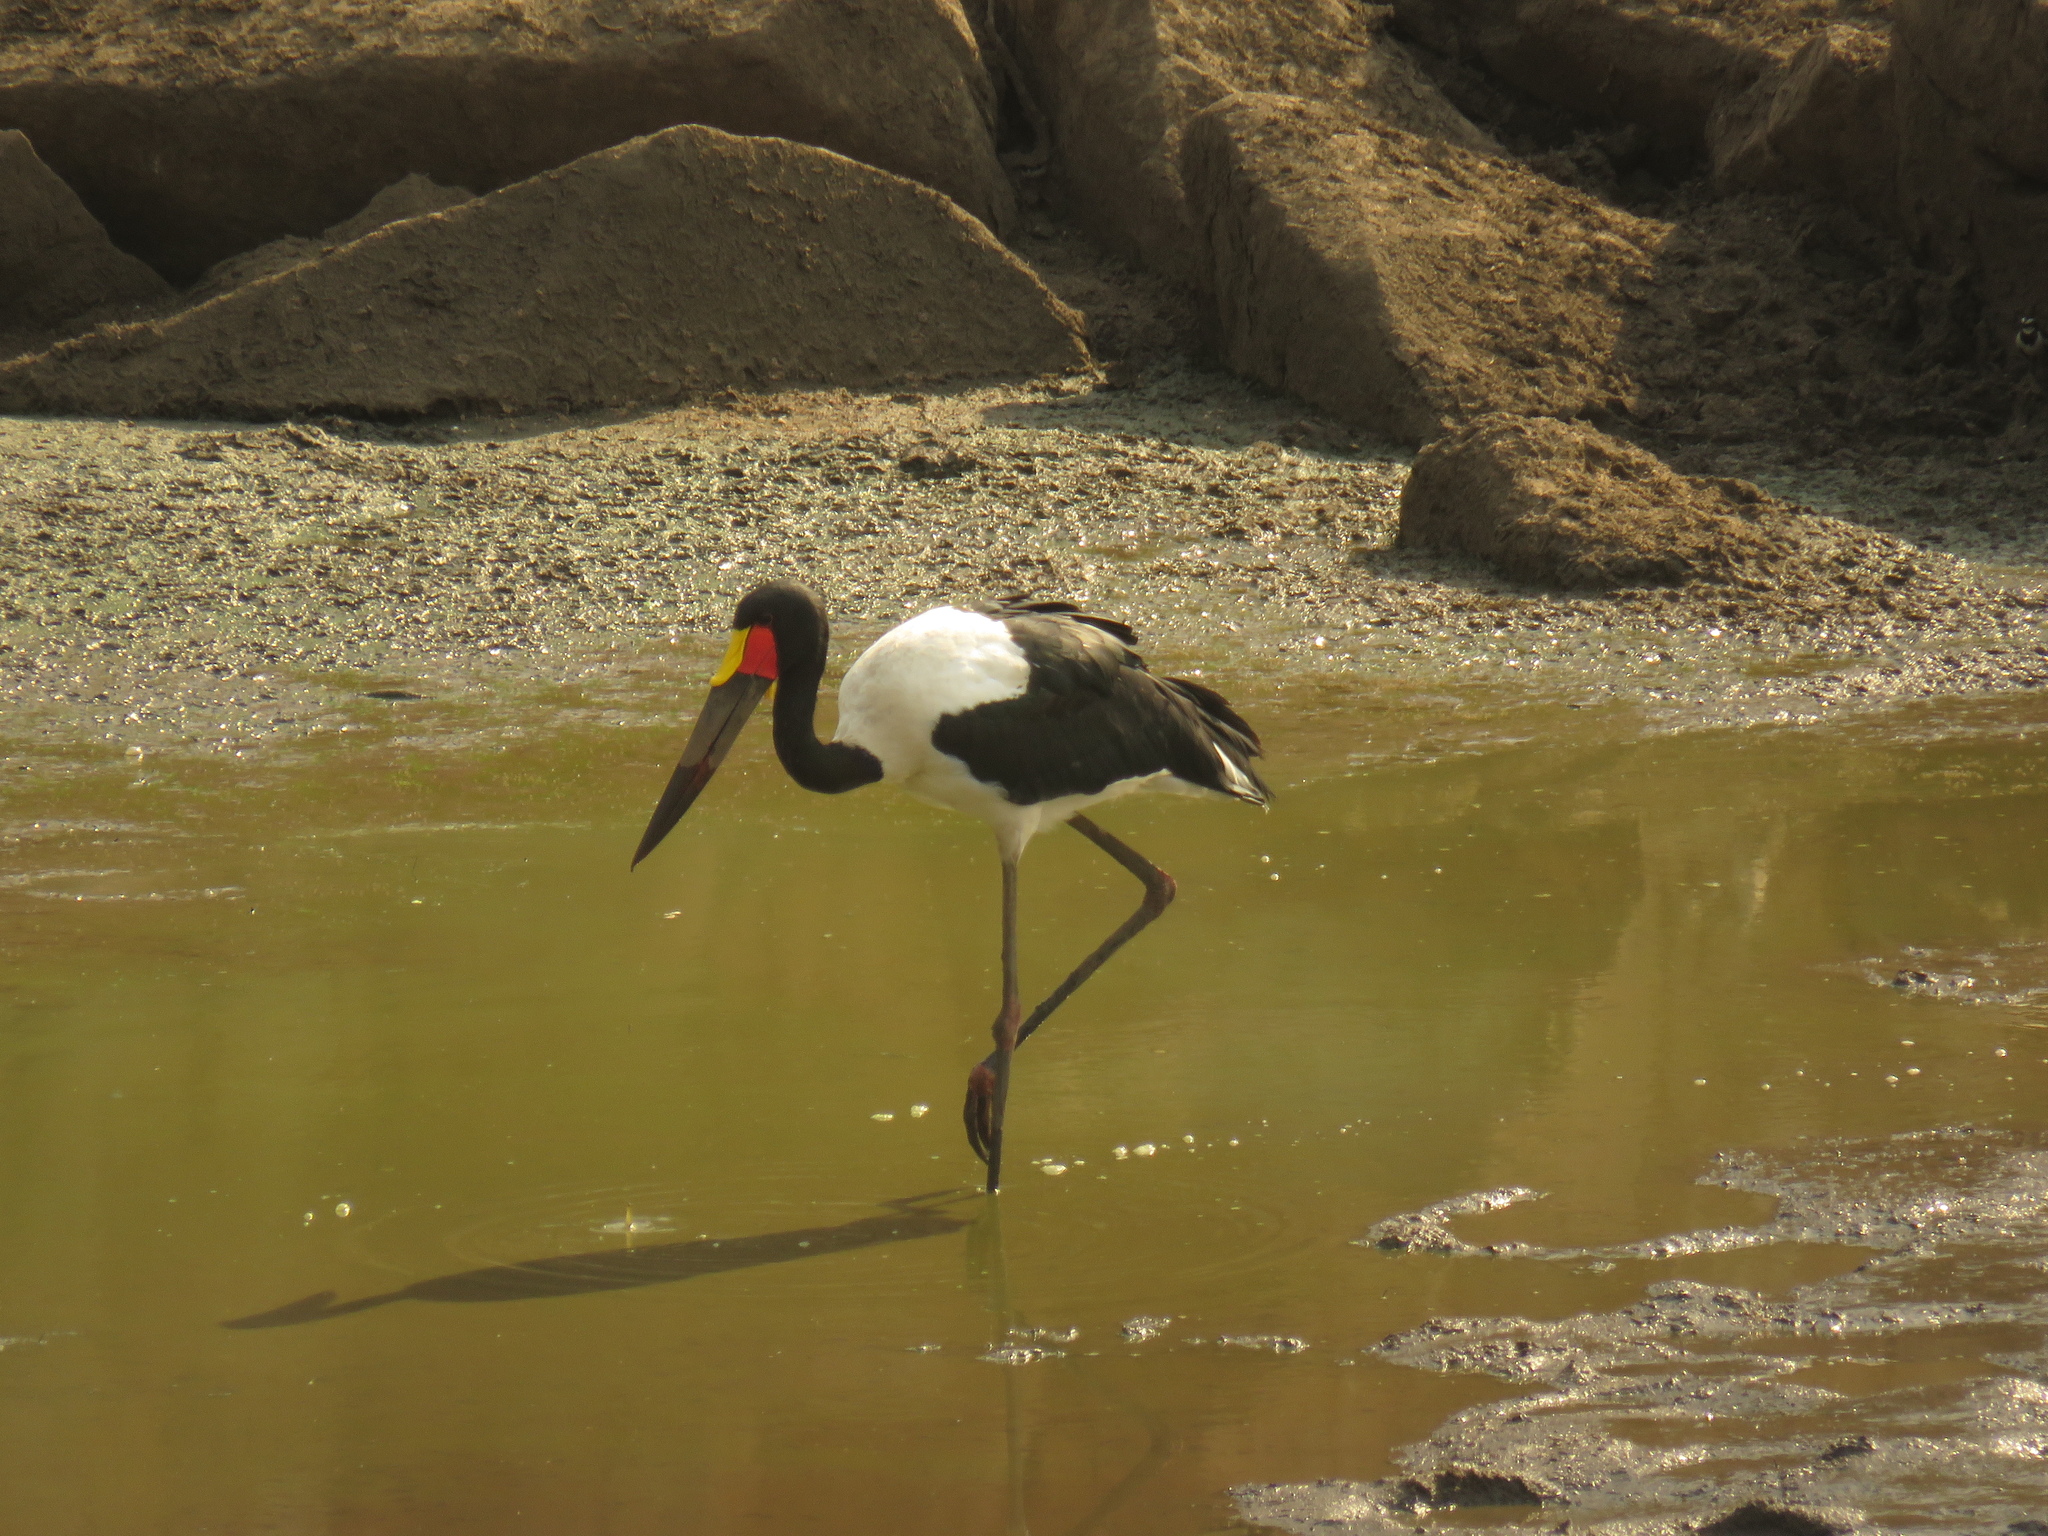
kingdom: Animalia
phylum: Chordata
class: Aves
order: Ciconiiformes
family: Ciconiidae
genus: Ephippiorhynchus
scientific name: Ephippiorhynchus senegalensis
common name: Saddle-billed stork
